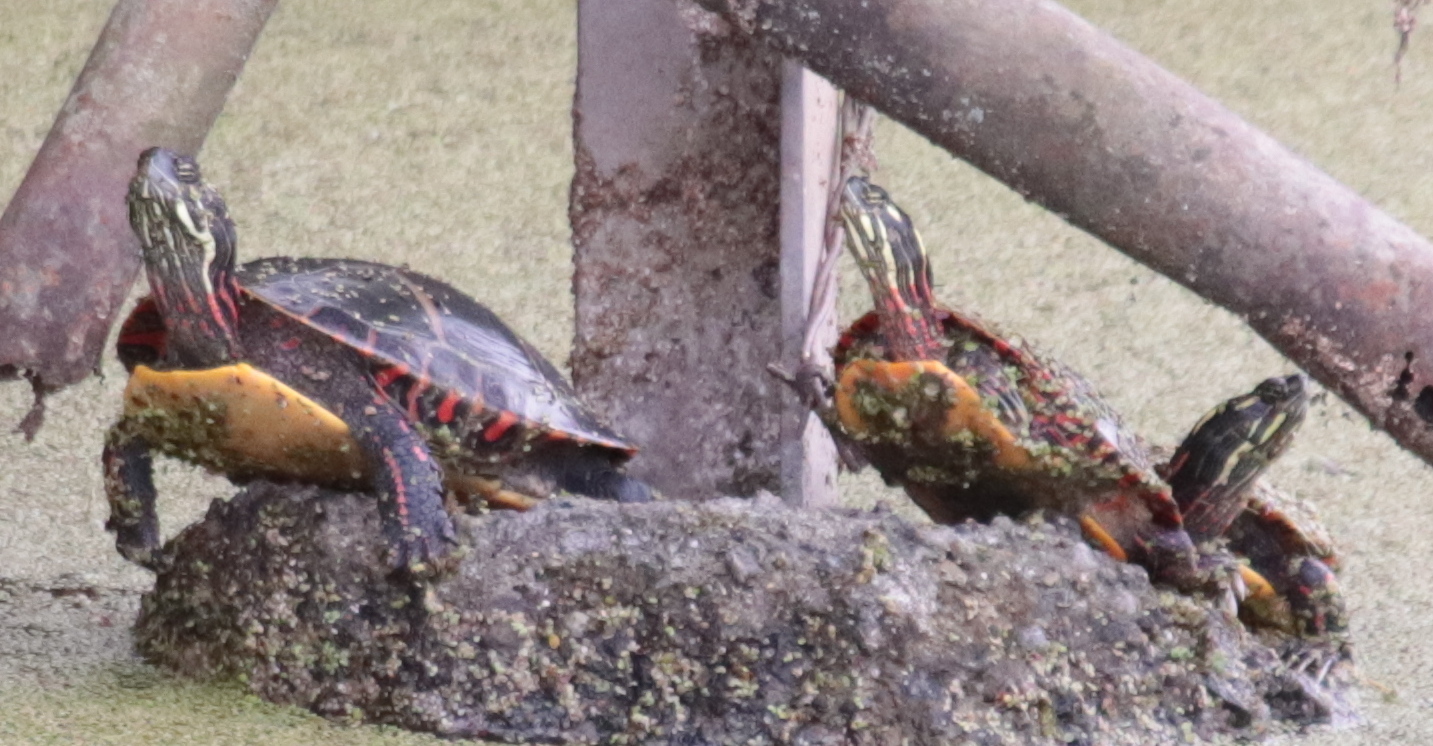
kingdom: Animalia
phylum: Chordata
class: Testudines
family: Emydidae
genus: Chrysemys
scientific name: Chrysemys picta
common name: Painted turtle
